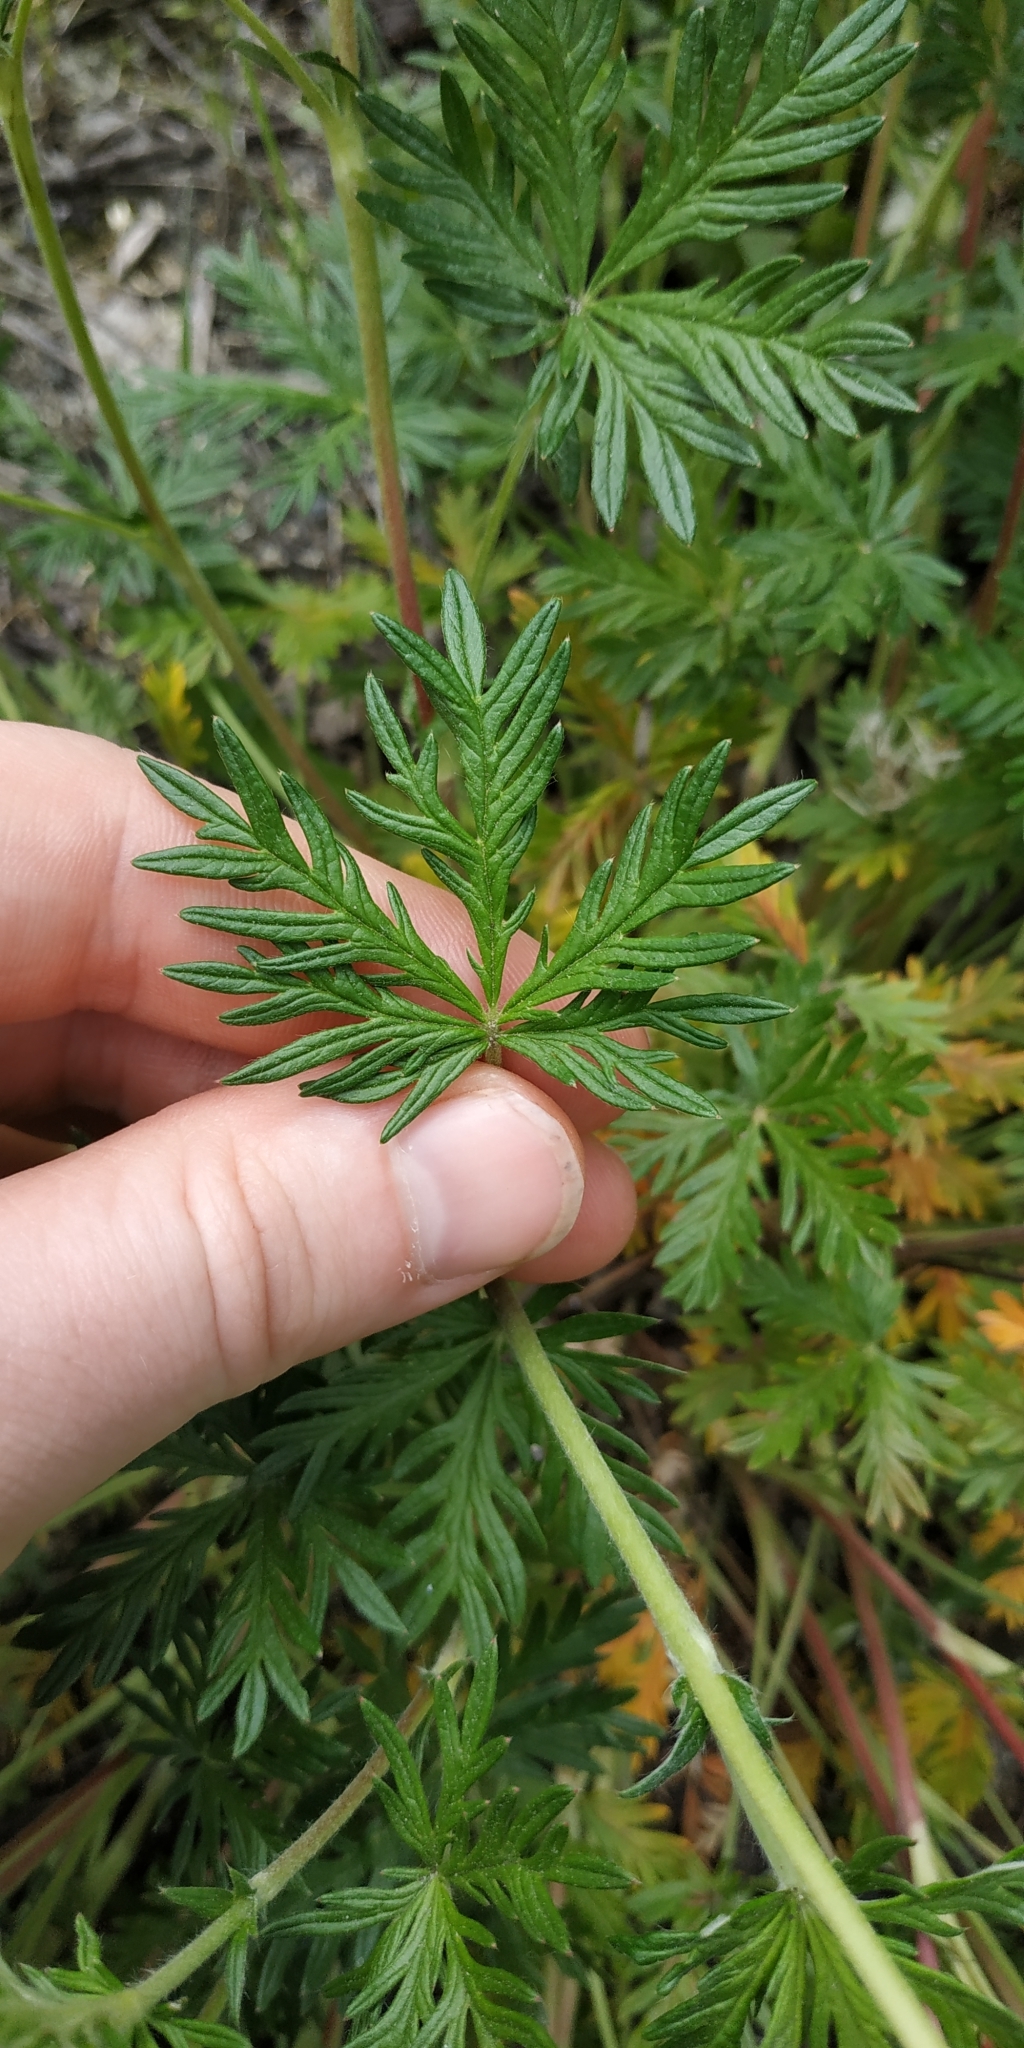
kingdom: Plantae
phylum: Tracheophyta
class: Magnoliopsida
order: Rosales
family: Rosaceae
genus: Potentilla
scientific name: Potentilla argentea
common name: Hoary cinquefoil
